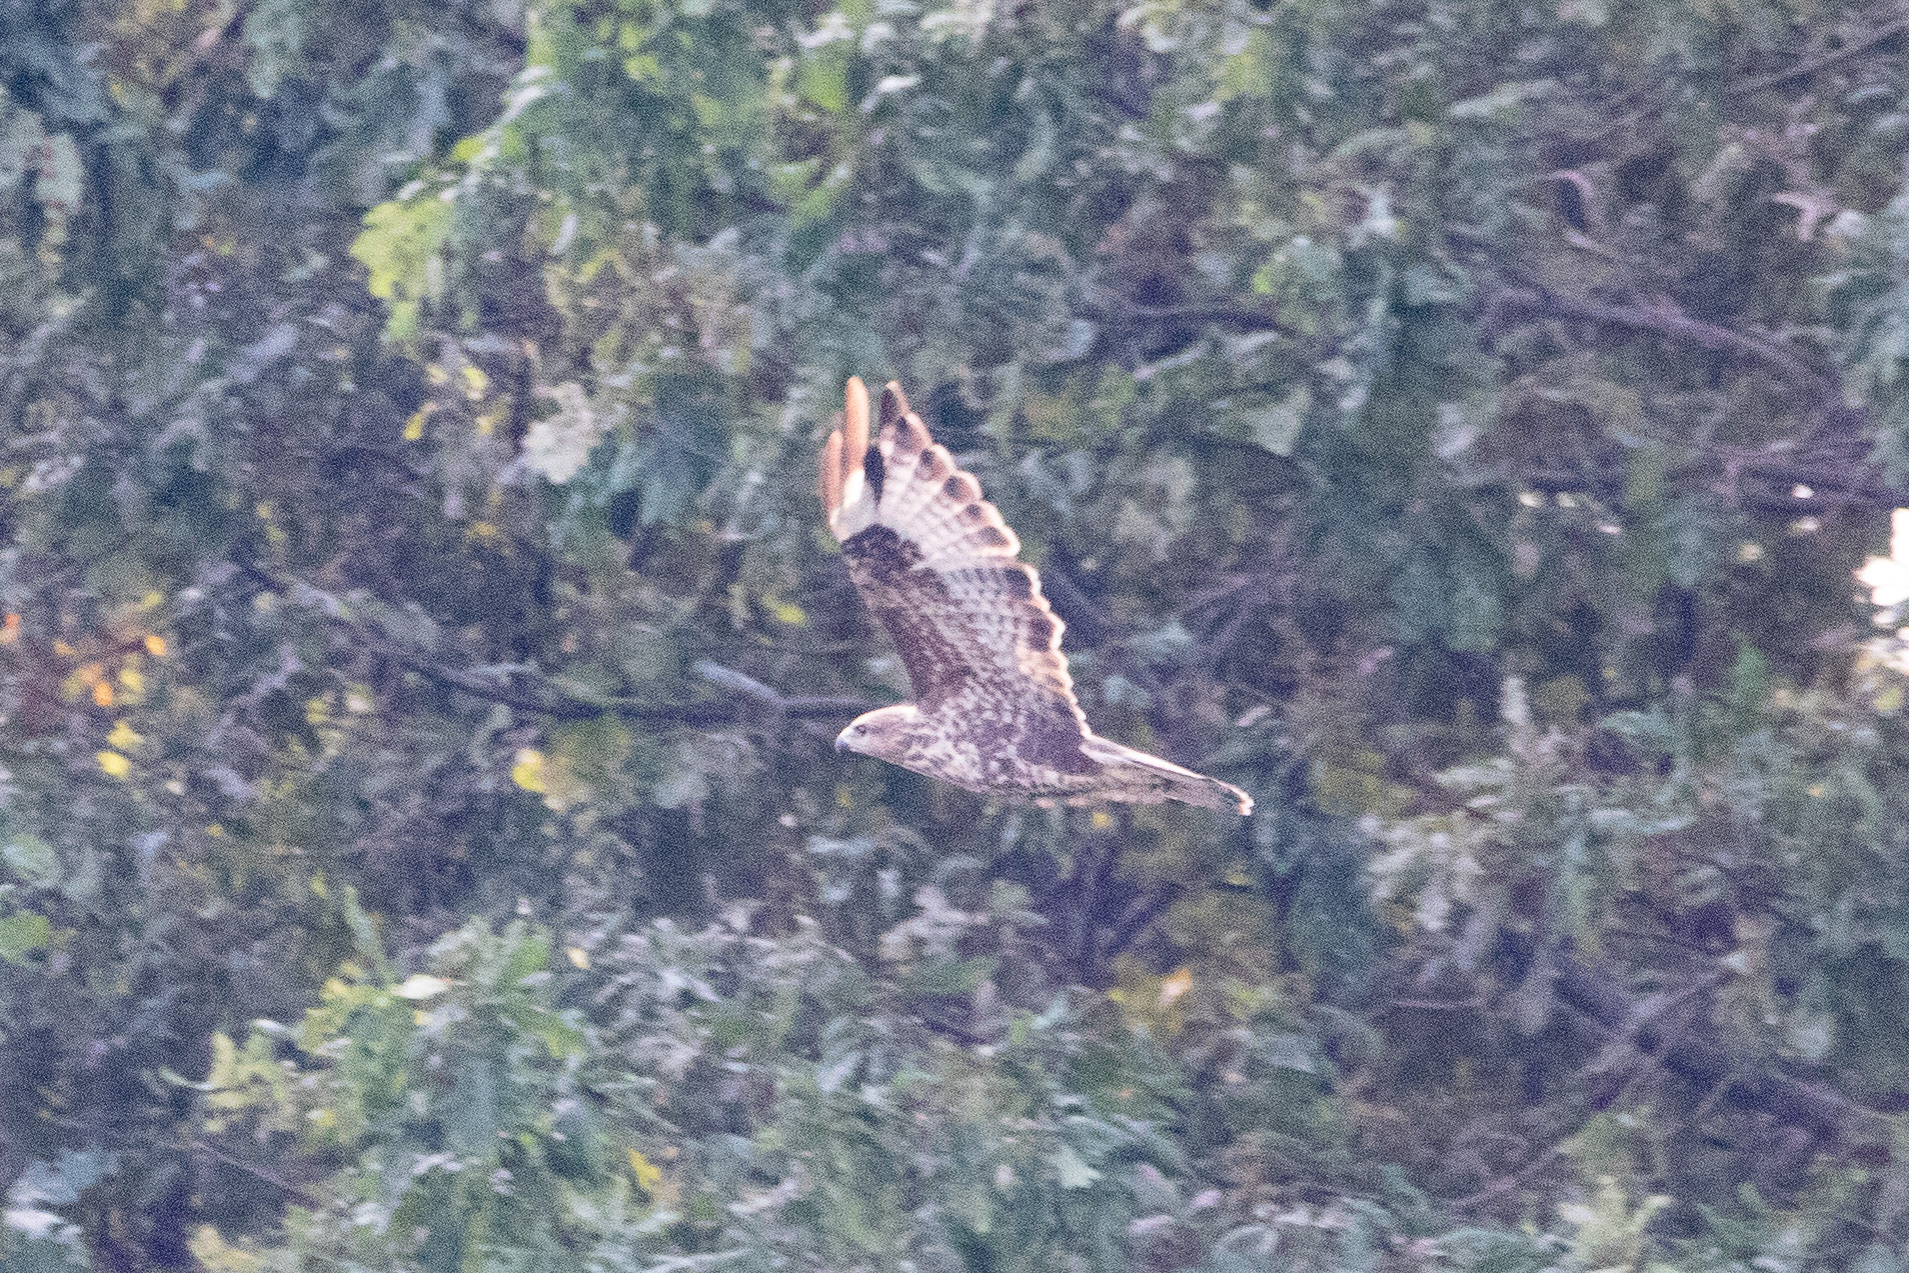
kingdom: Animalia
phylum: Chordata
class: Aves
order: Accipitriformes
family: Accipitridae
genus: Buteo
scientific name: Buteo buteo
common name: Common buzzard
